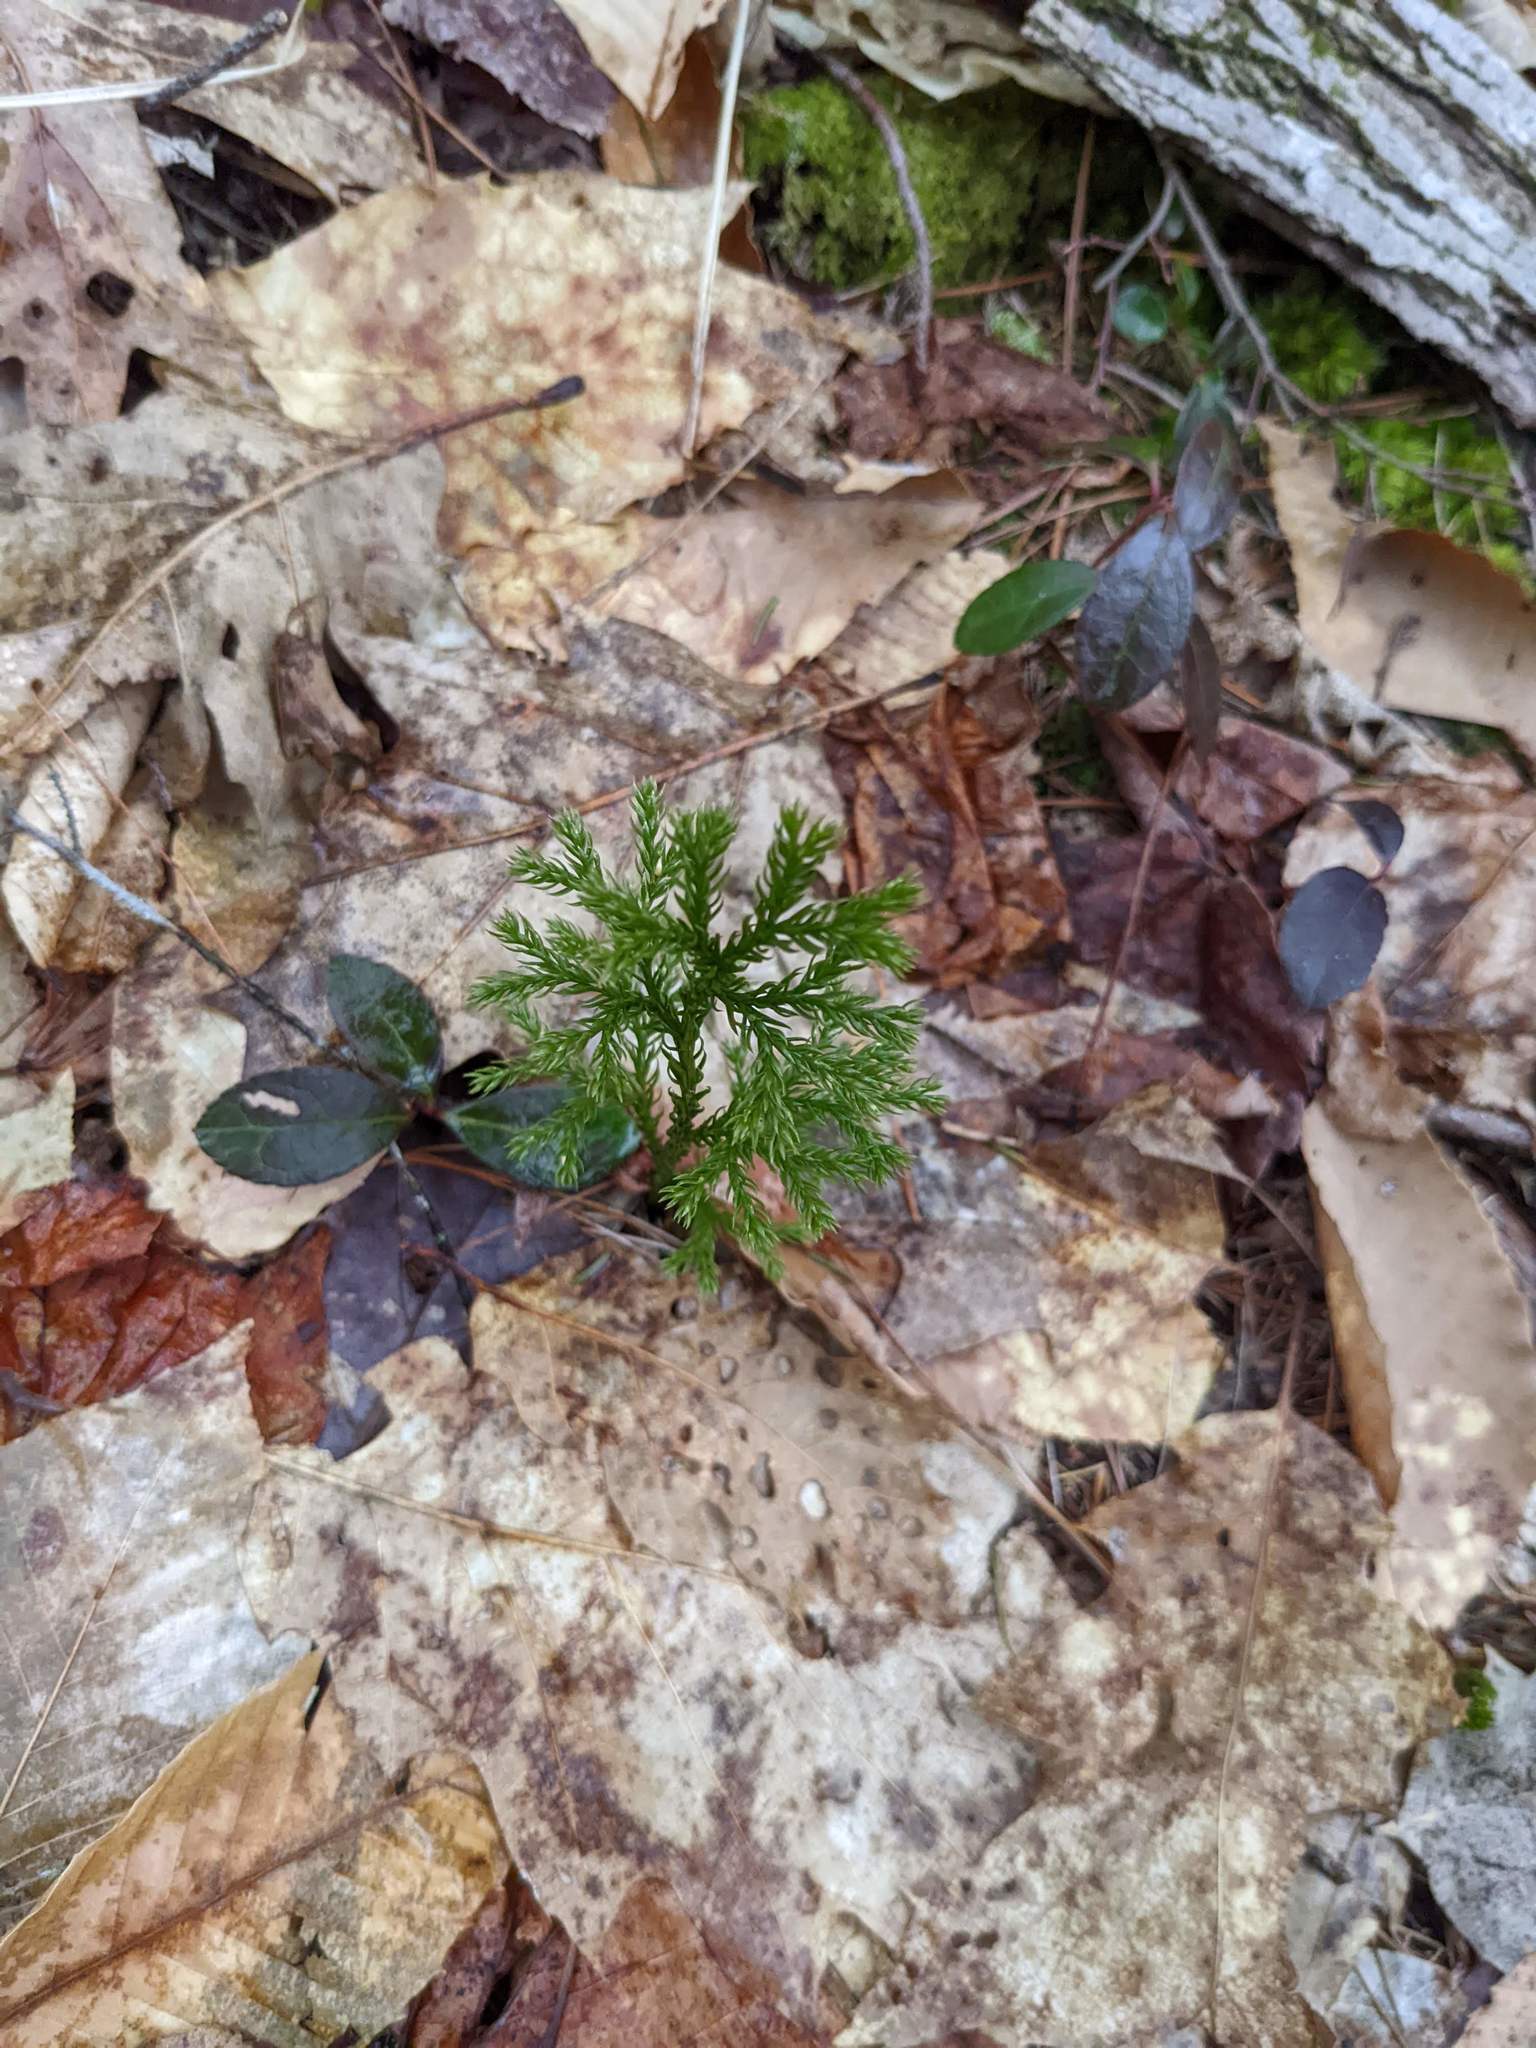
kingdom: Plantae
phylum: Tracheophyta
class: Magnoliopsida
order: Ericales
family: Ericaceae
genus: Gaultheria
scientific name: Gaultheria procumbens
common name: Checkerberry
